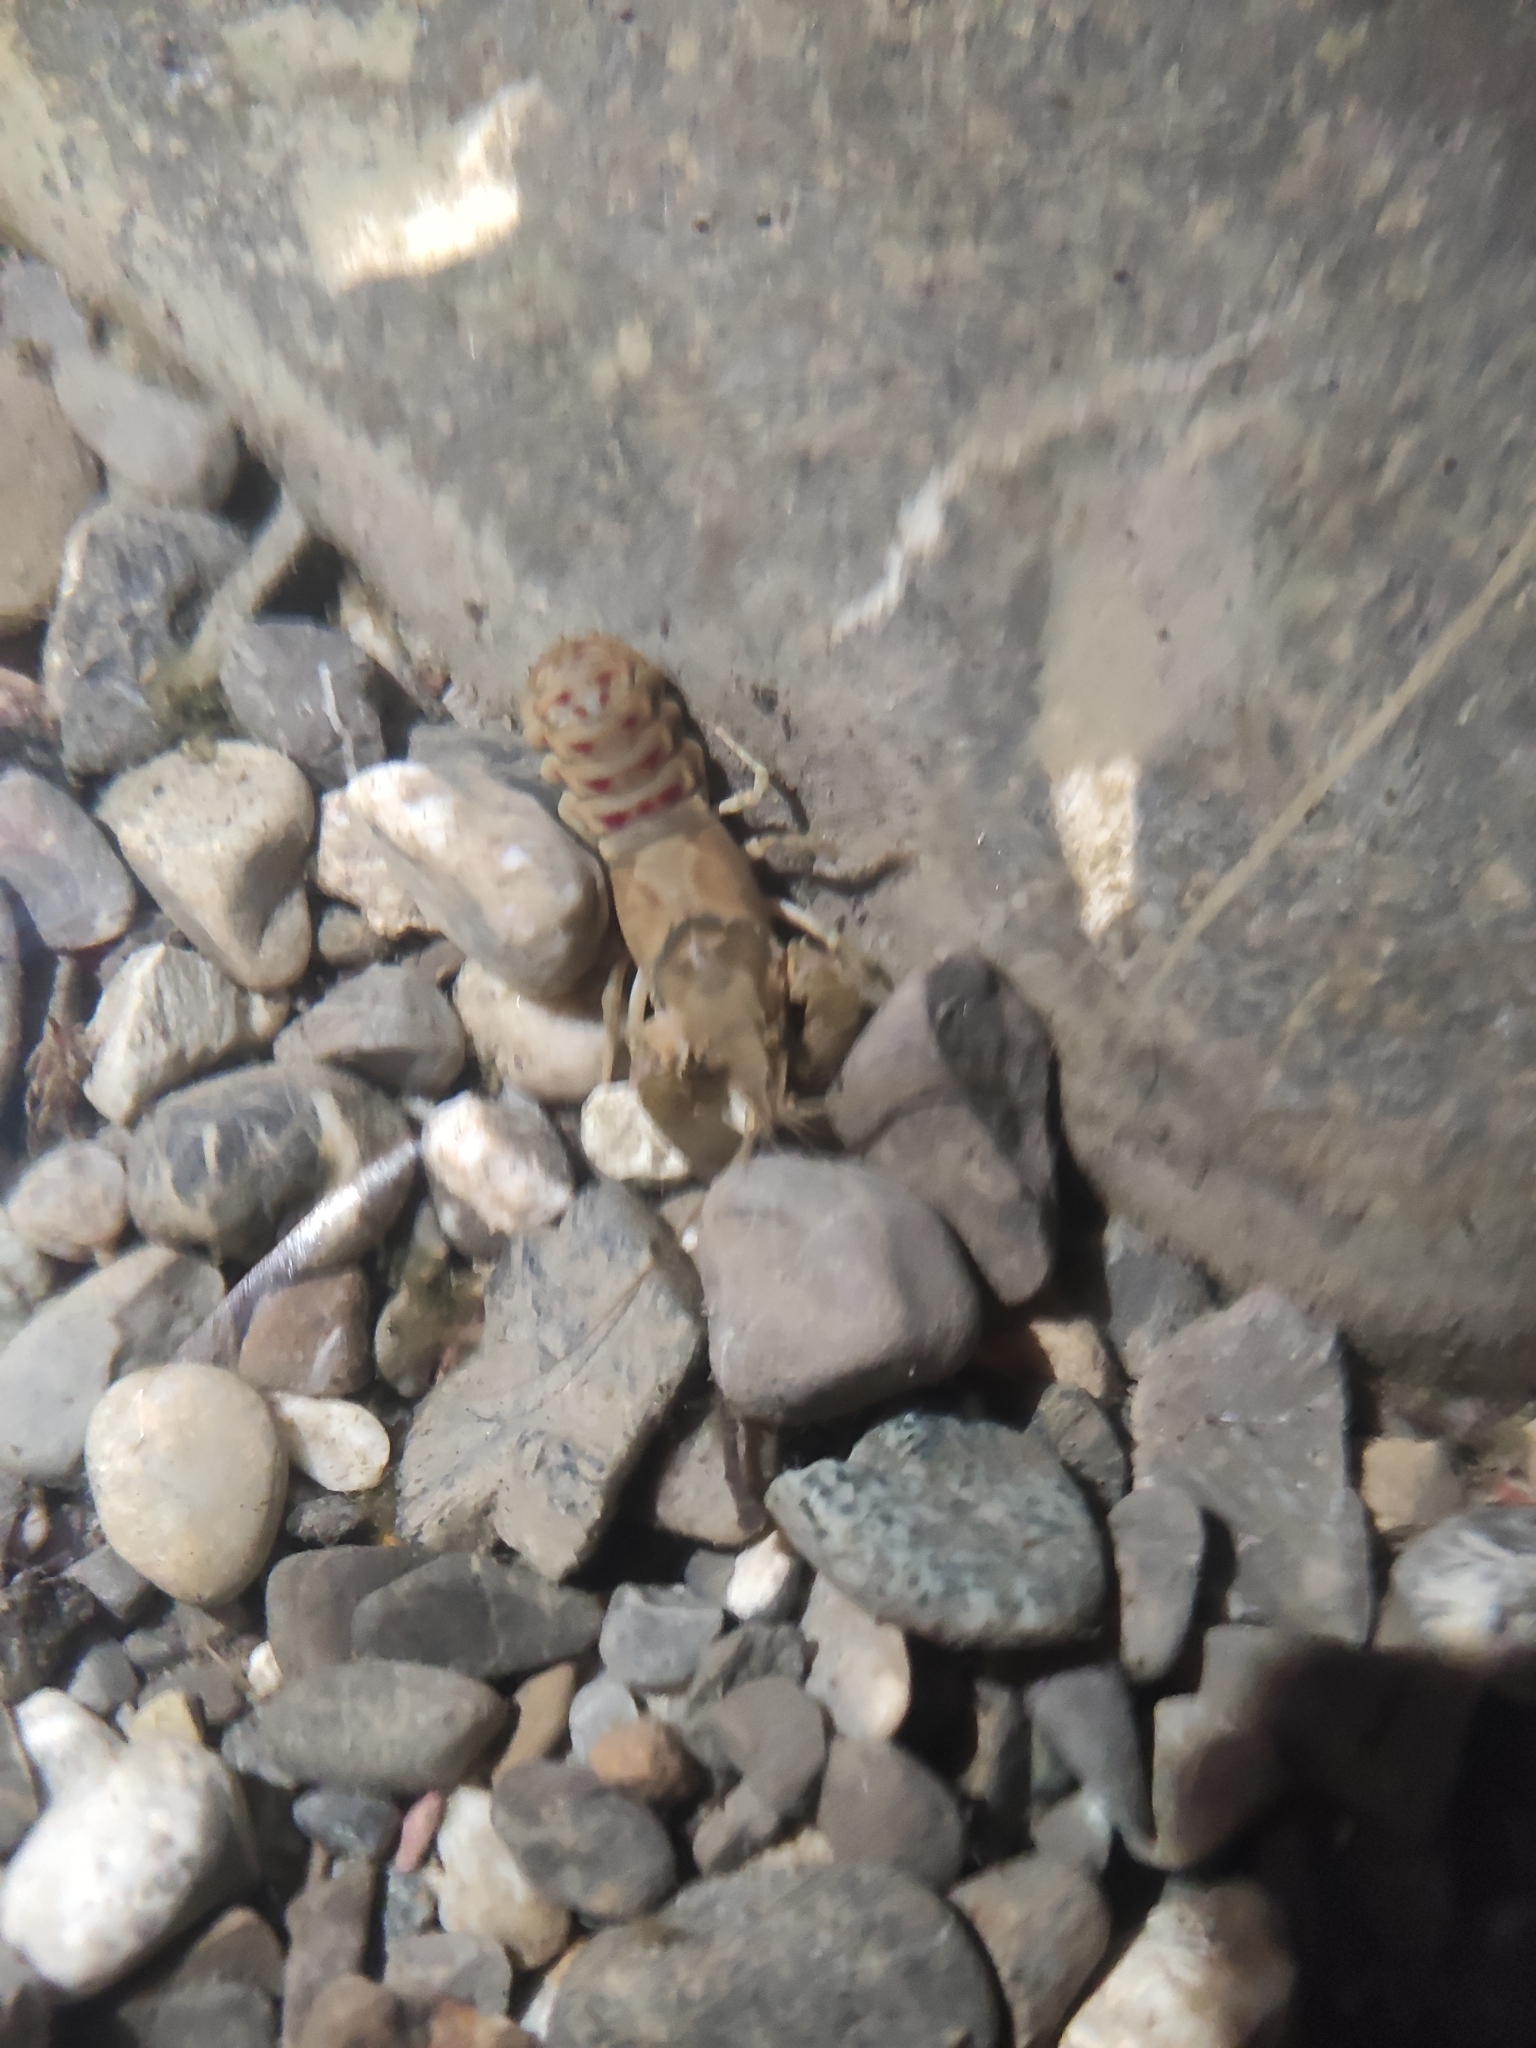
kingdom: Animalia
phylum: Arthropoda
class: Malacostraca
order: Decapoda
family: Cambaridae
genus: Faxonius
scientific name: Faxonius limosus
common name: American crayfish
